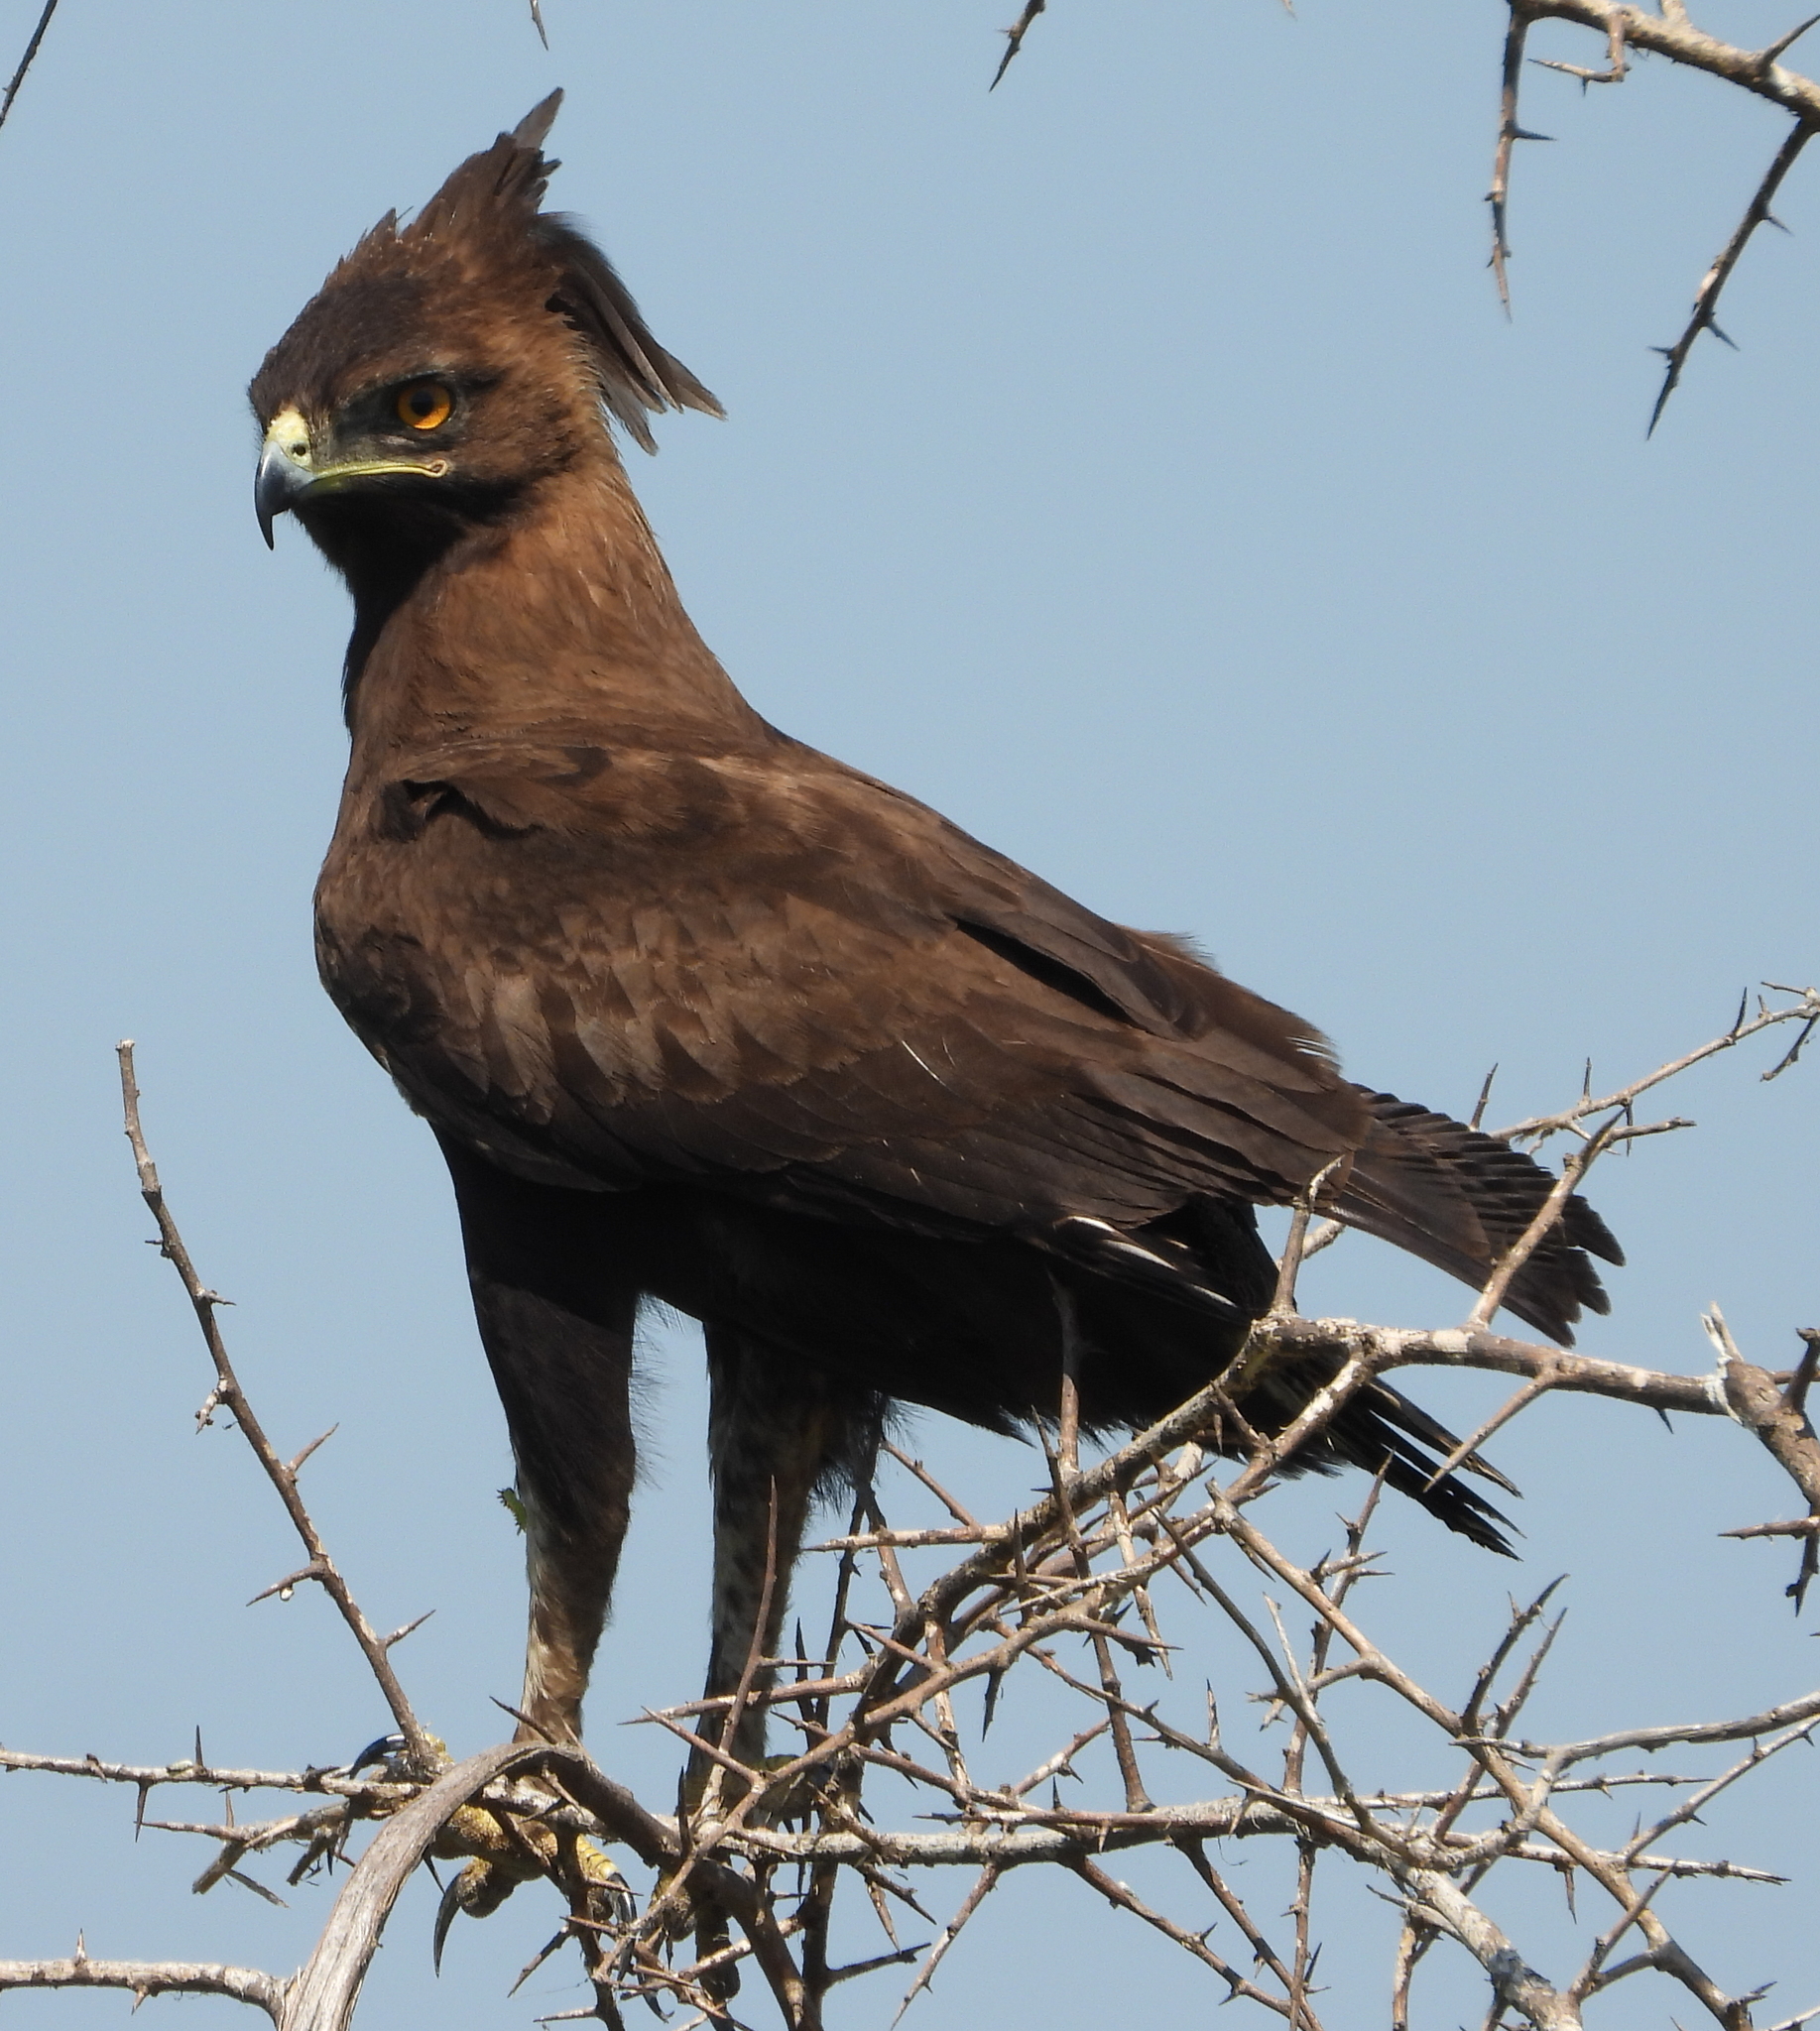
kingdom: Animalia
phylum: Chordata
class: Aves
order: Accipitriformes
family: Accipitridae
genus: Lophaetus
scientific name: Lophaetus occipitalis
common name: Long-crested eagle
